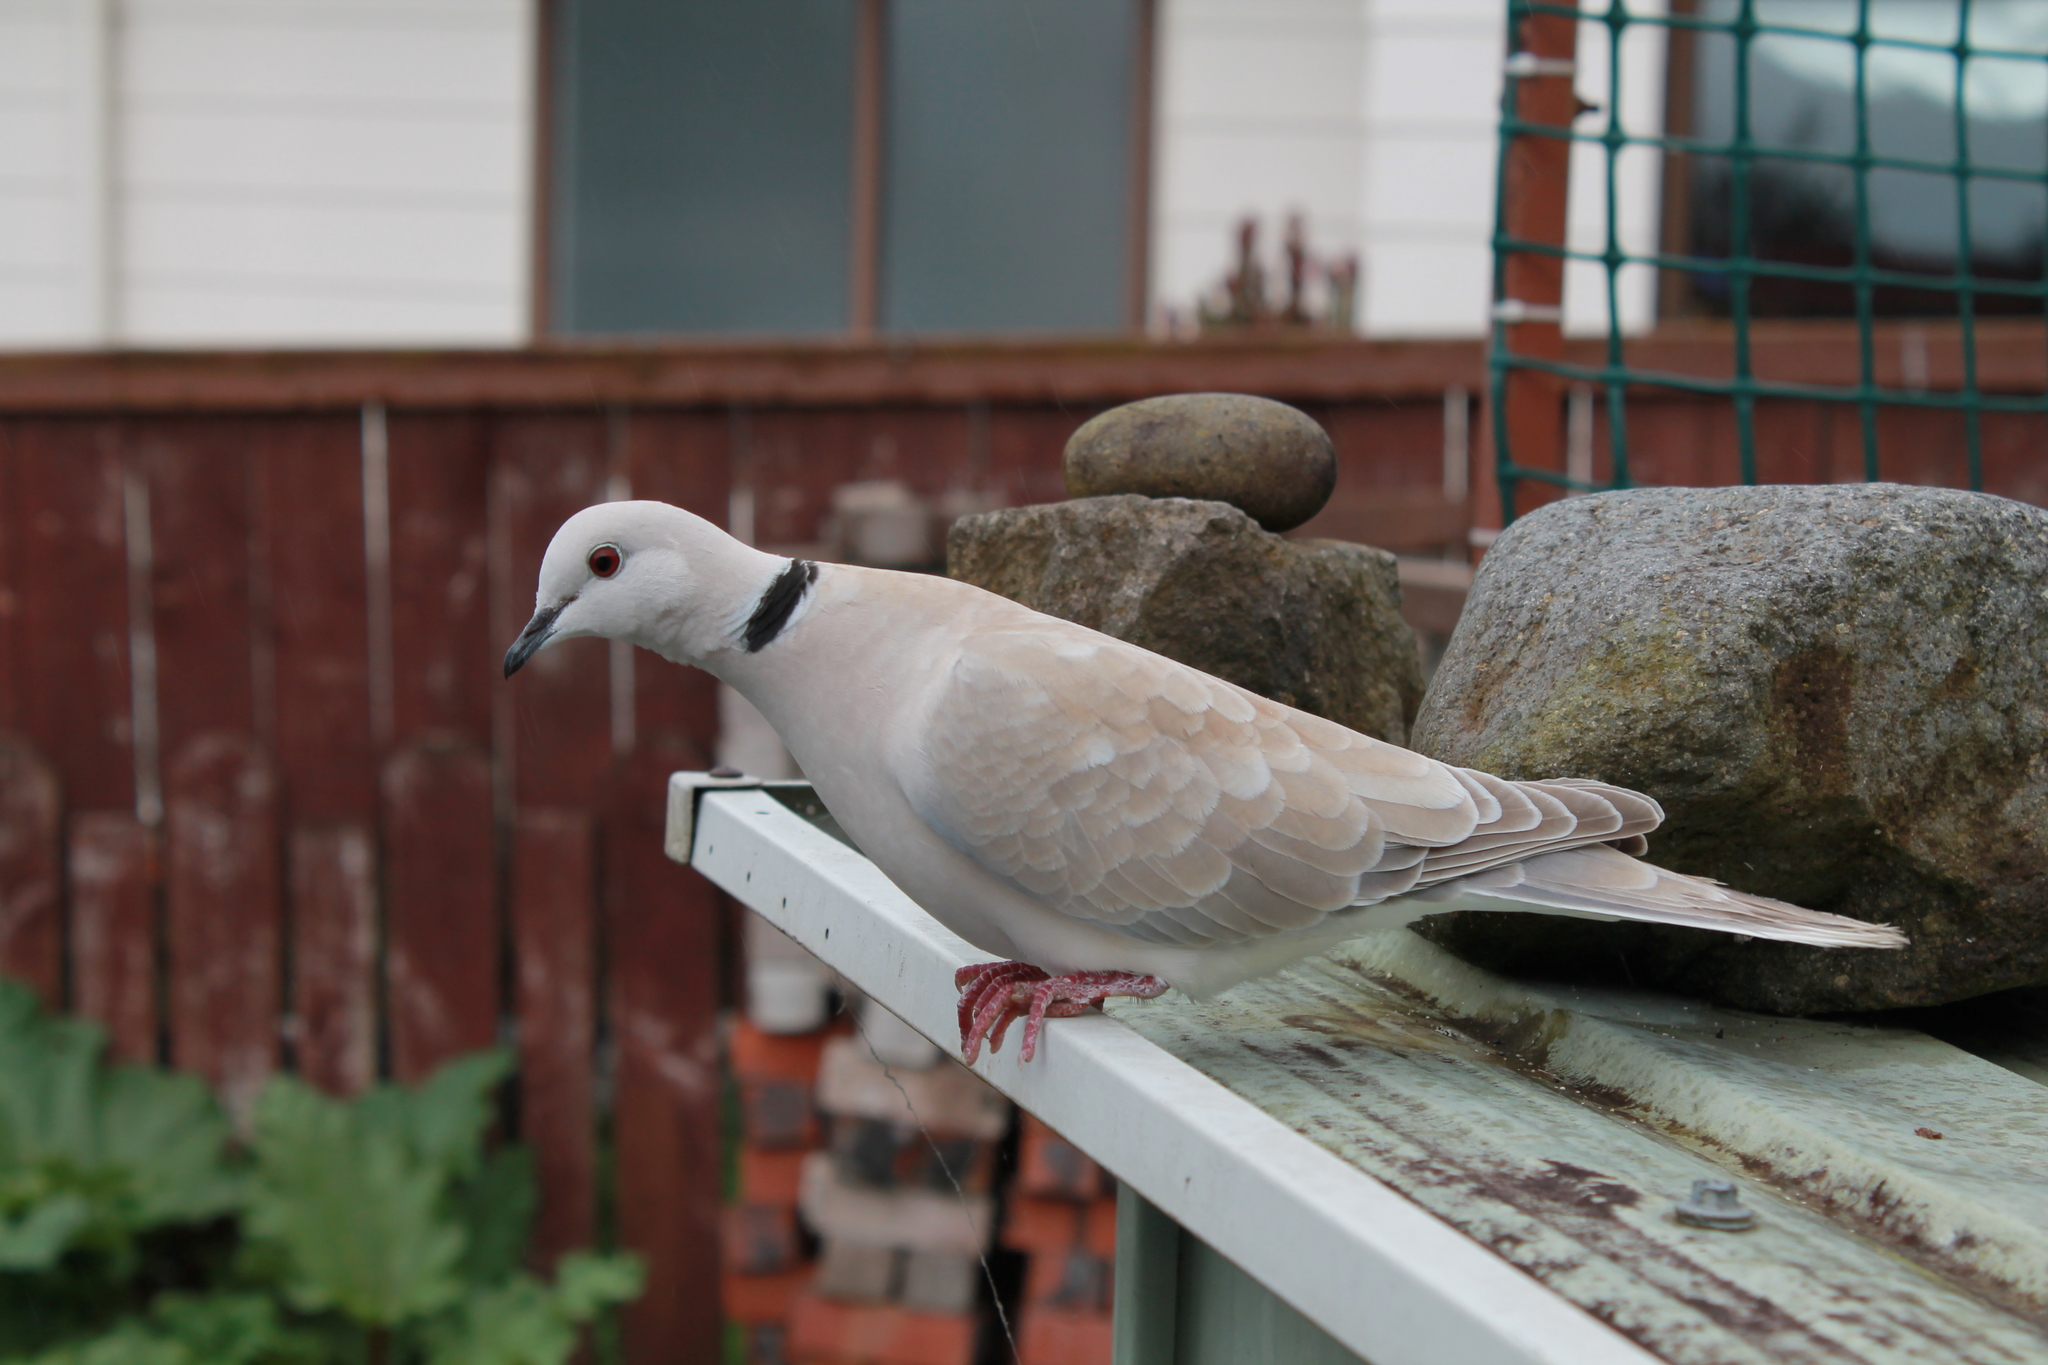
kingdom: Animalia
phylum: Chordata
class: Aves
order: Columbiformes
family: Columbidae
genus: Streptopelia
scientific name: Streptopelia roseogrisea
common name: African collared dove
